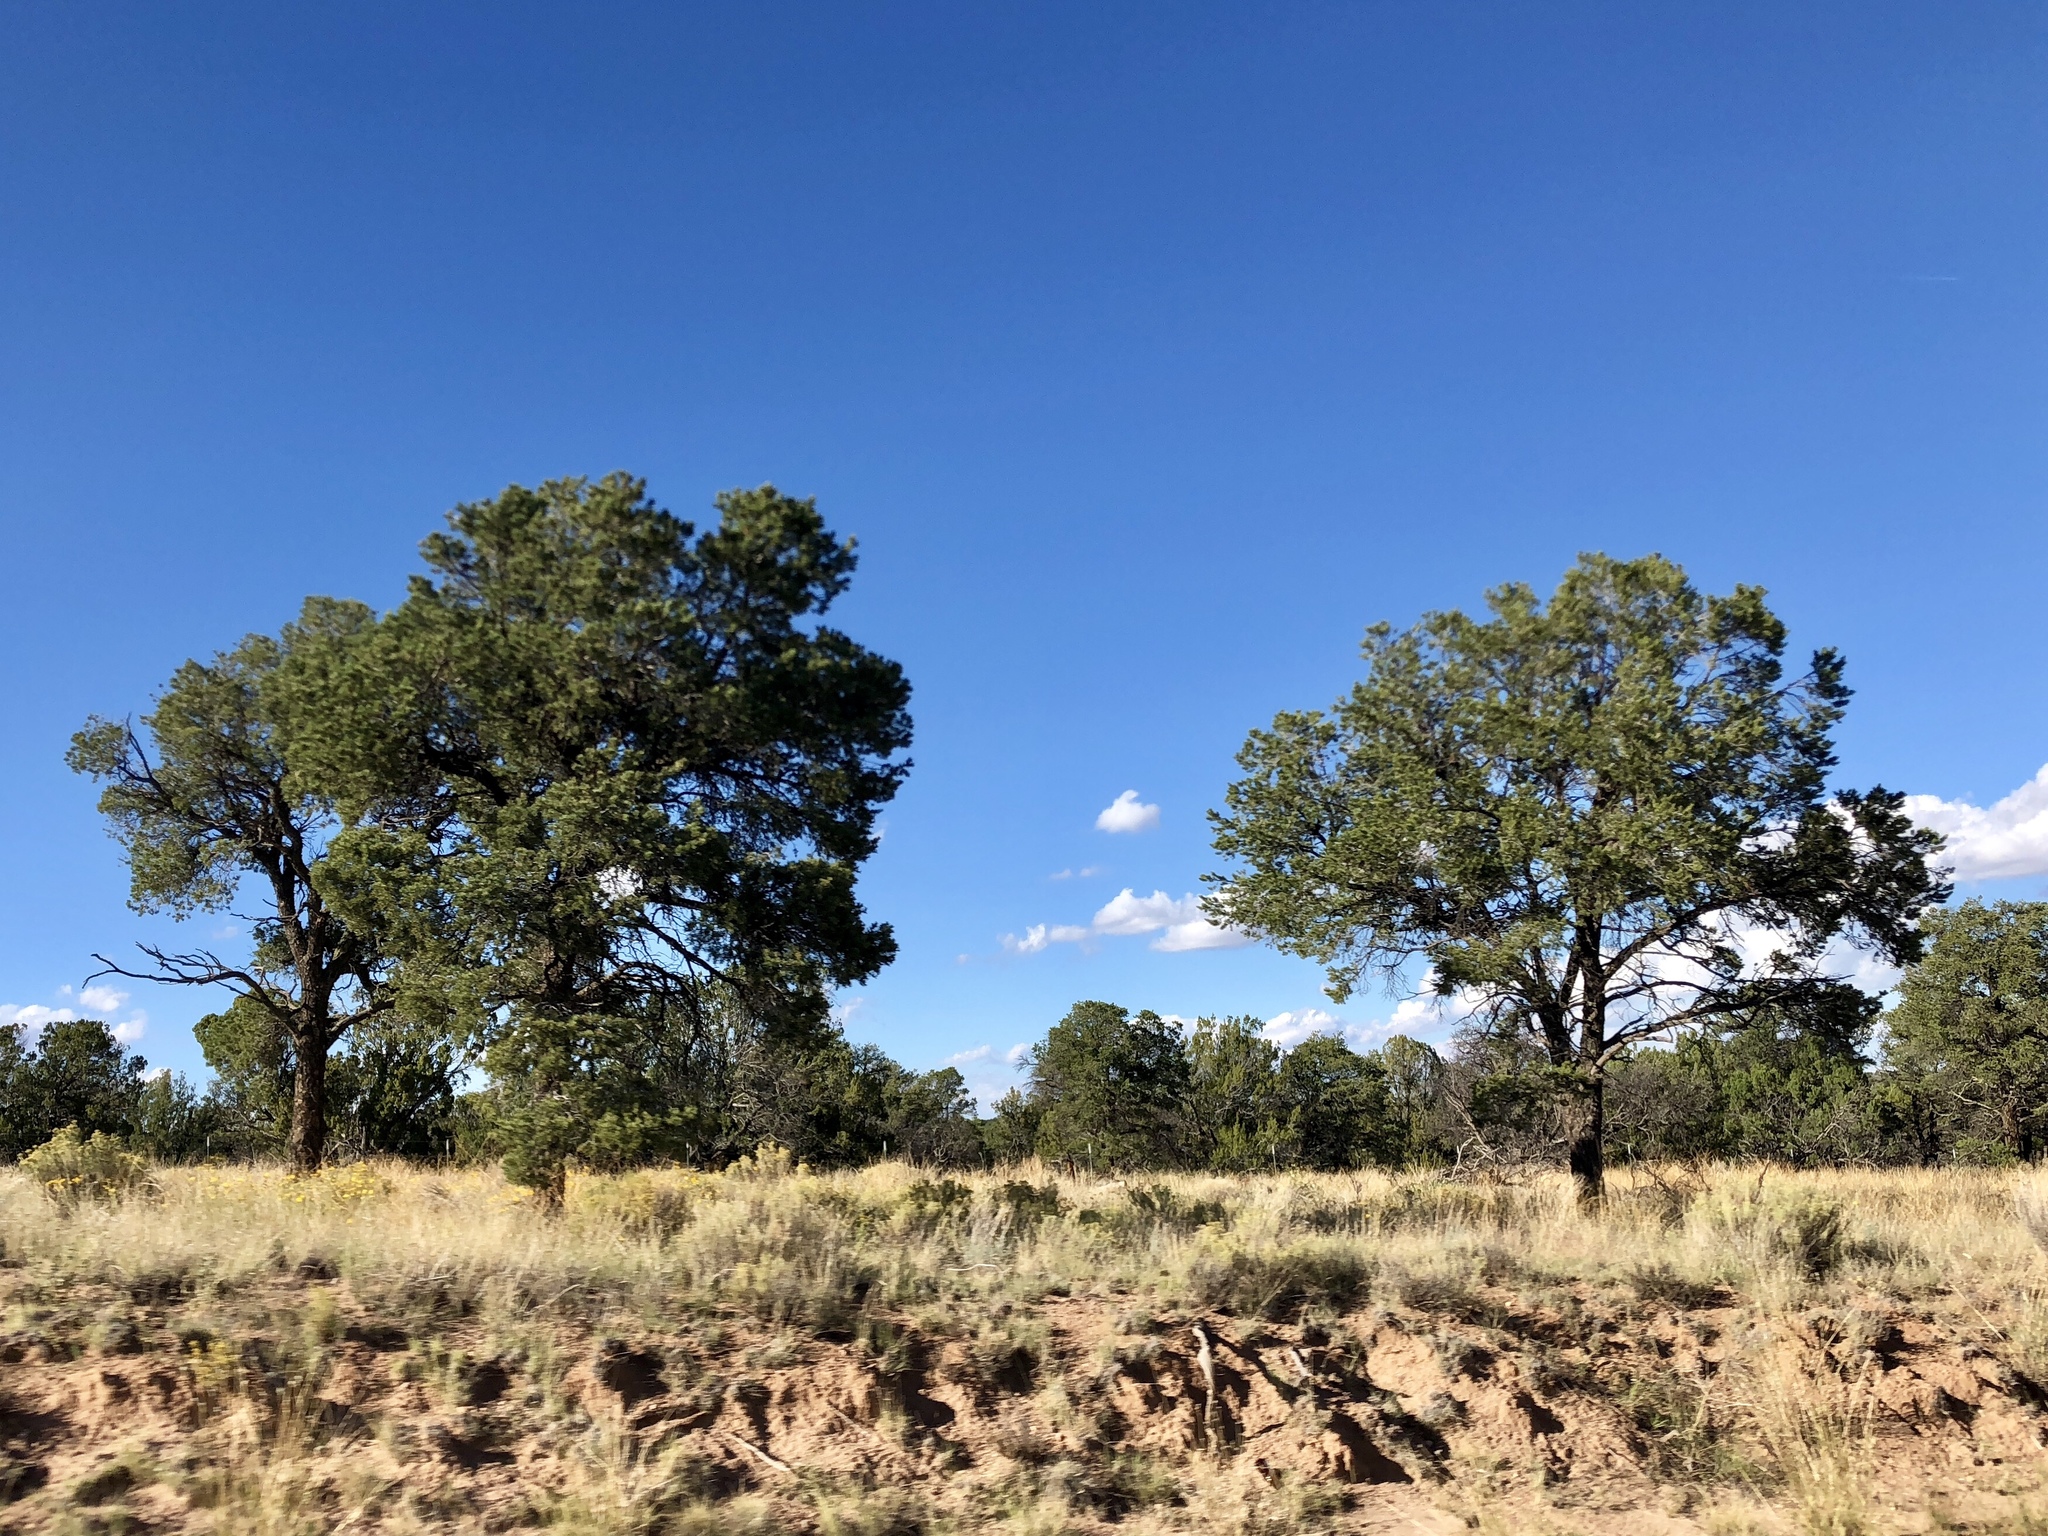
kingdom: Plantae
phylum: Tracheophyta
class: Pinopsida
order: Pinales
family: Pinaceae
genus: Pinus
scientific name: Pinus edulis
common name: Colorado pinyon
